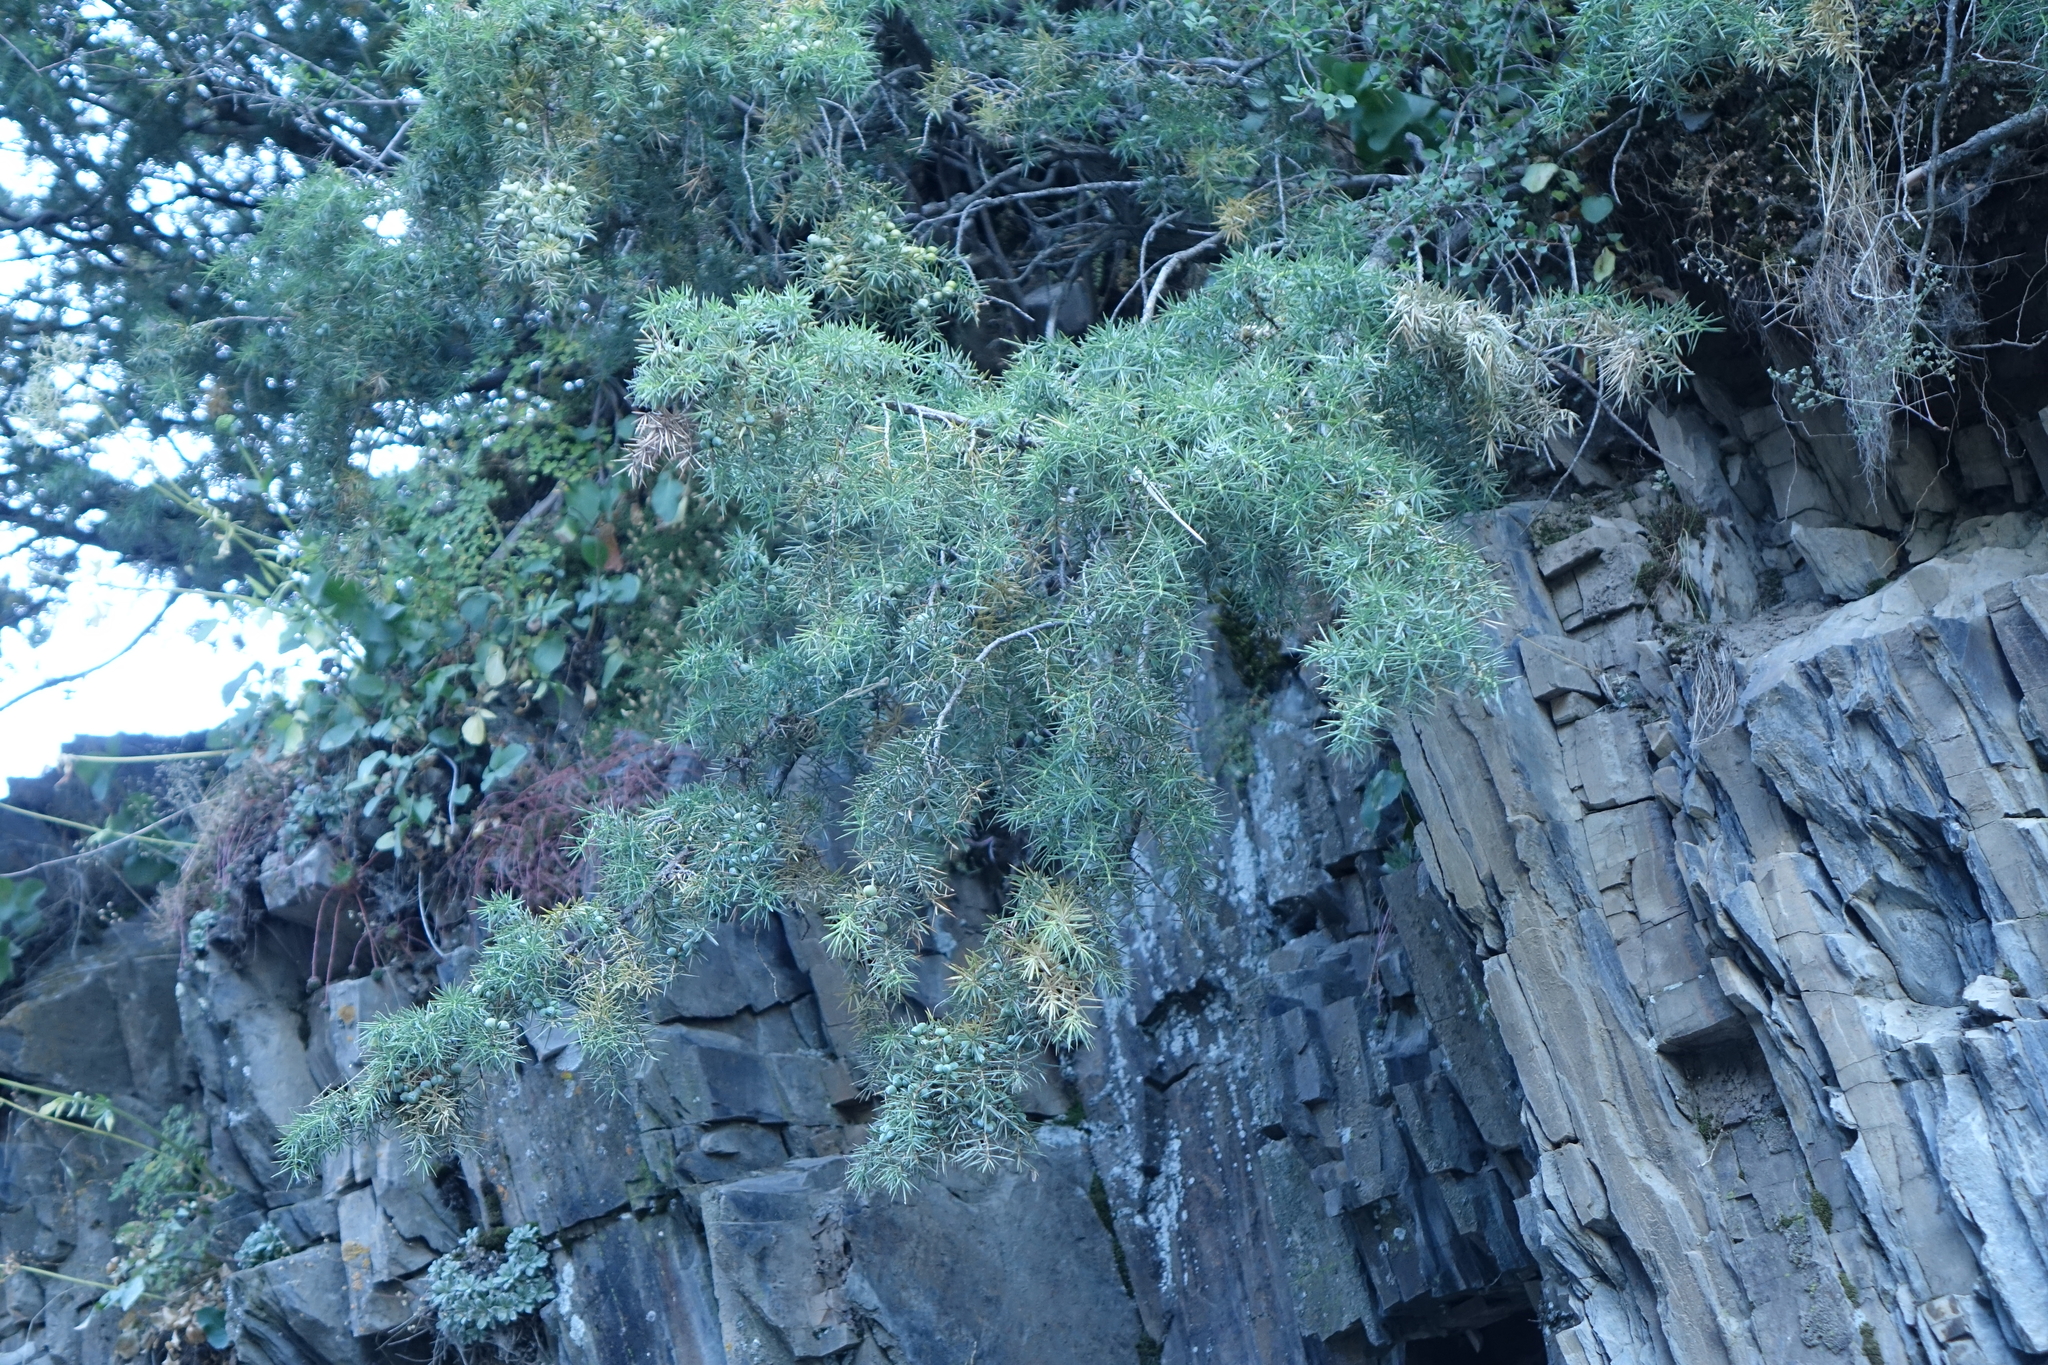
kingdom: Plantae
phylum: Tracheophyta
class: Pinopsida
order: Pinales
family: Cupressaceae
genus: Juniperus
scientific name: Juniperus communis
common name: Common juniper
